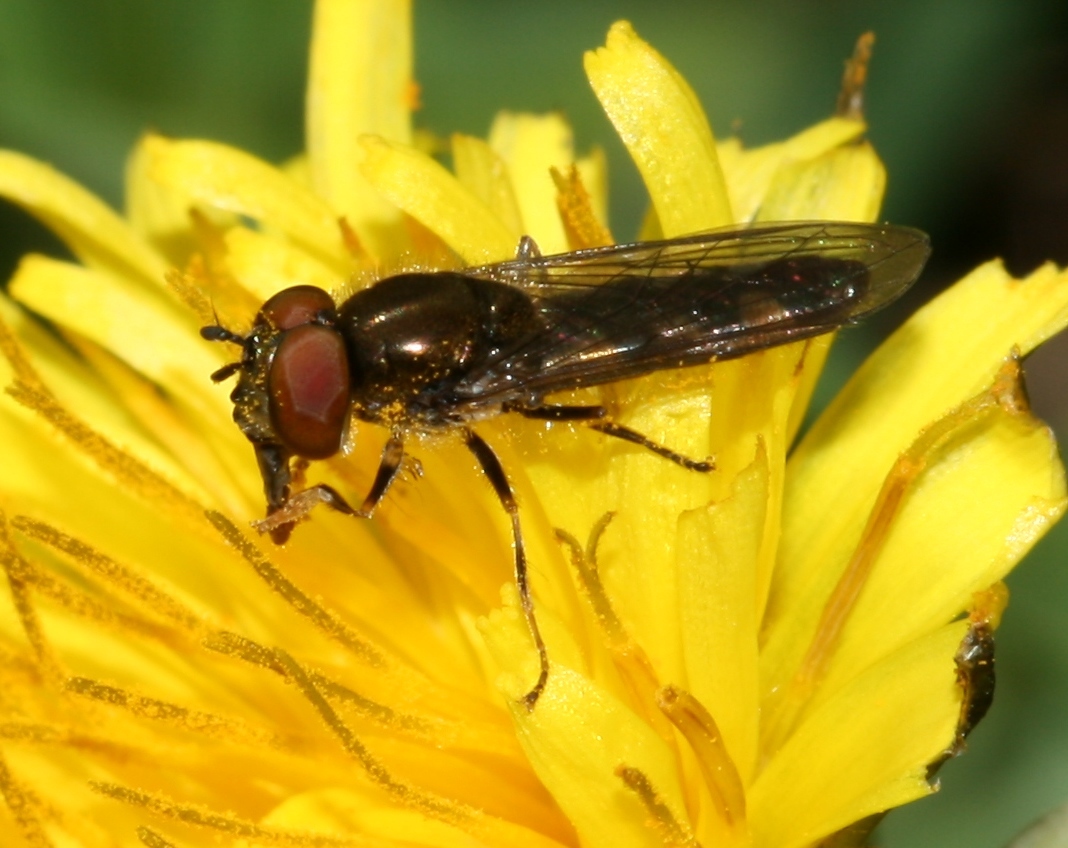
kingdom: Animalia
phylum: Arthropoda
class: Insecta
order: Diptera
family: Syrphidae
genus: Platycheirus
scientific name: Platycheirus albimanus
